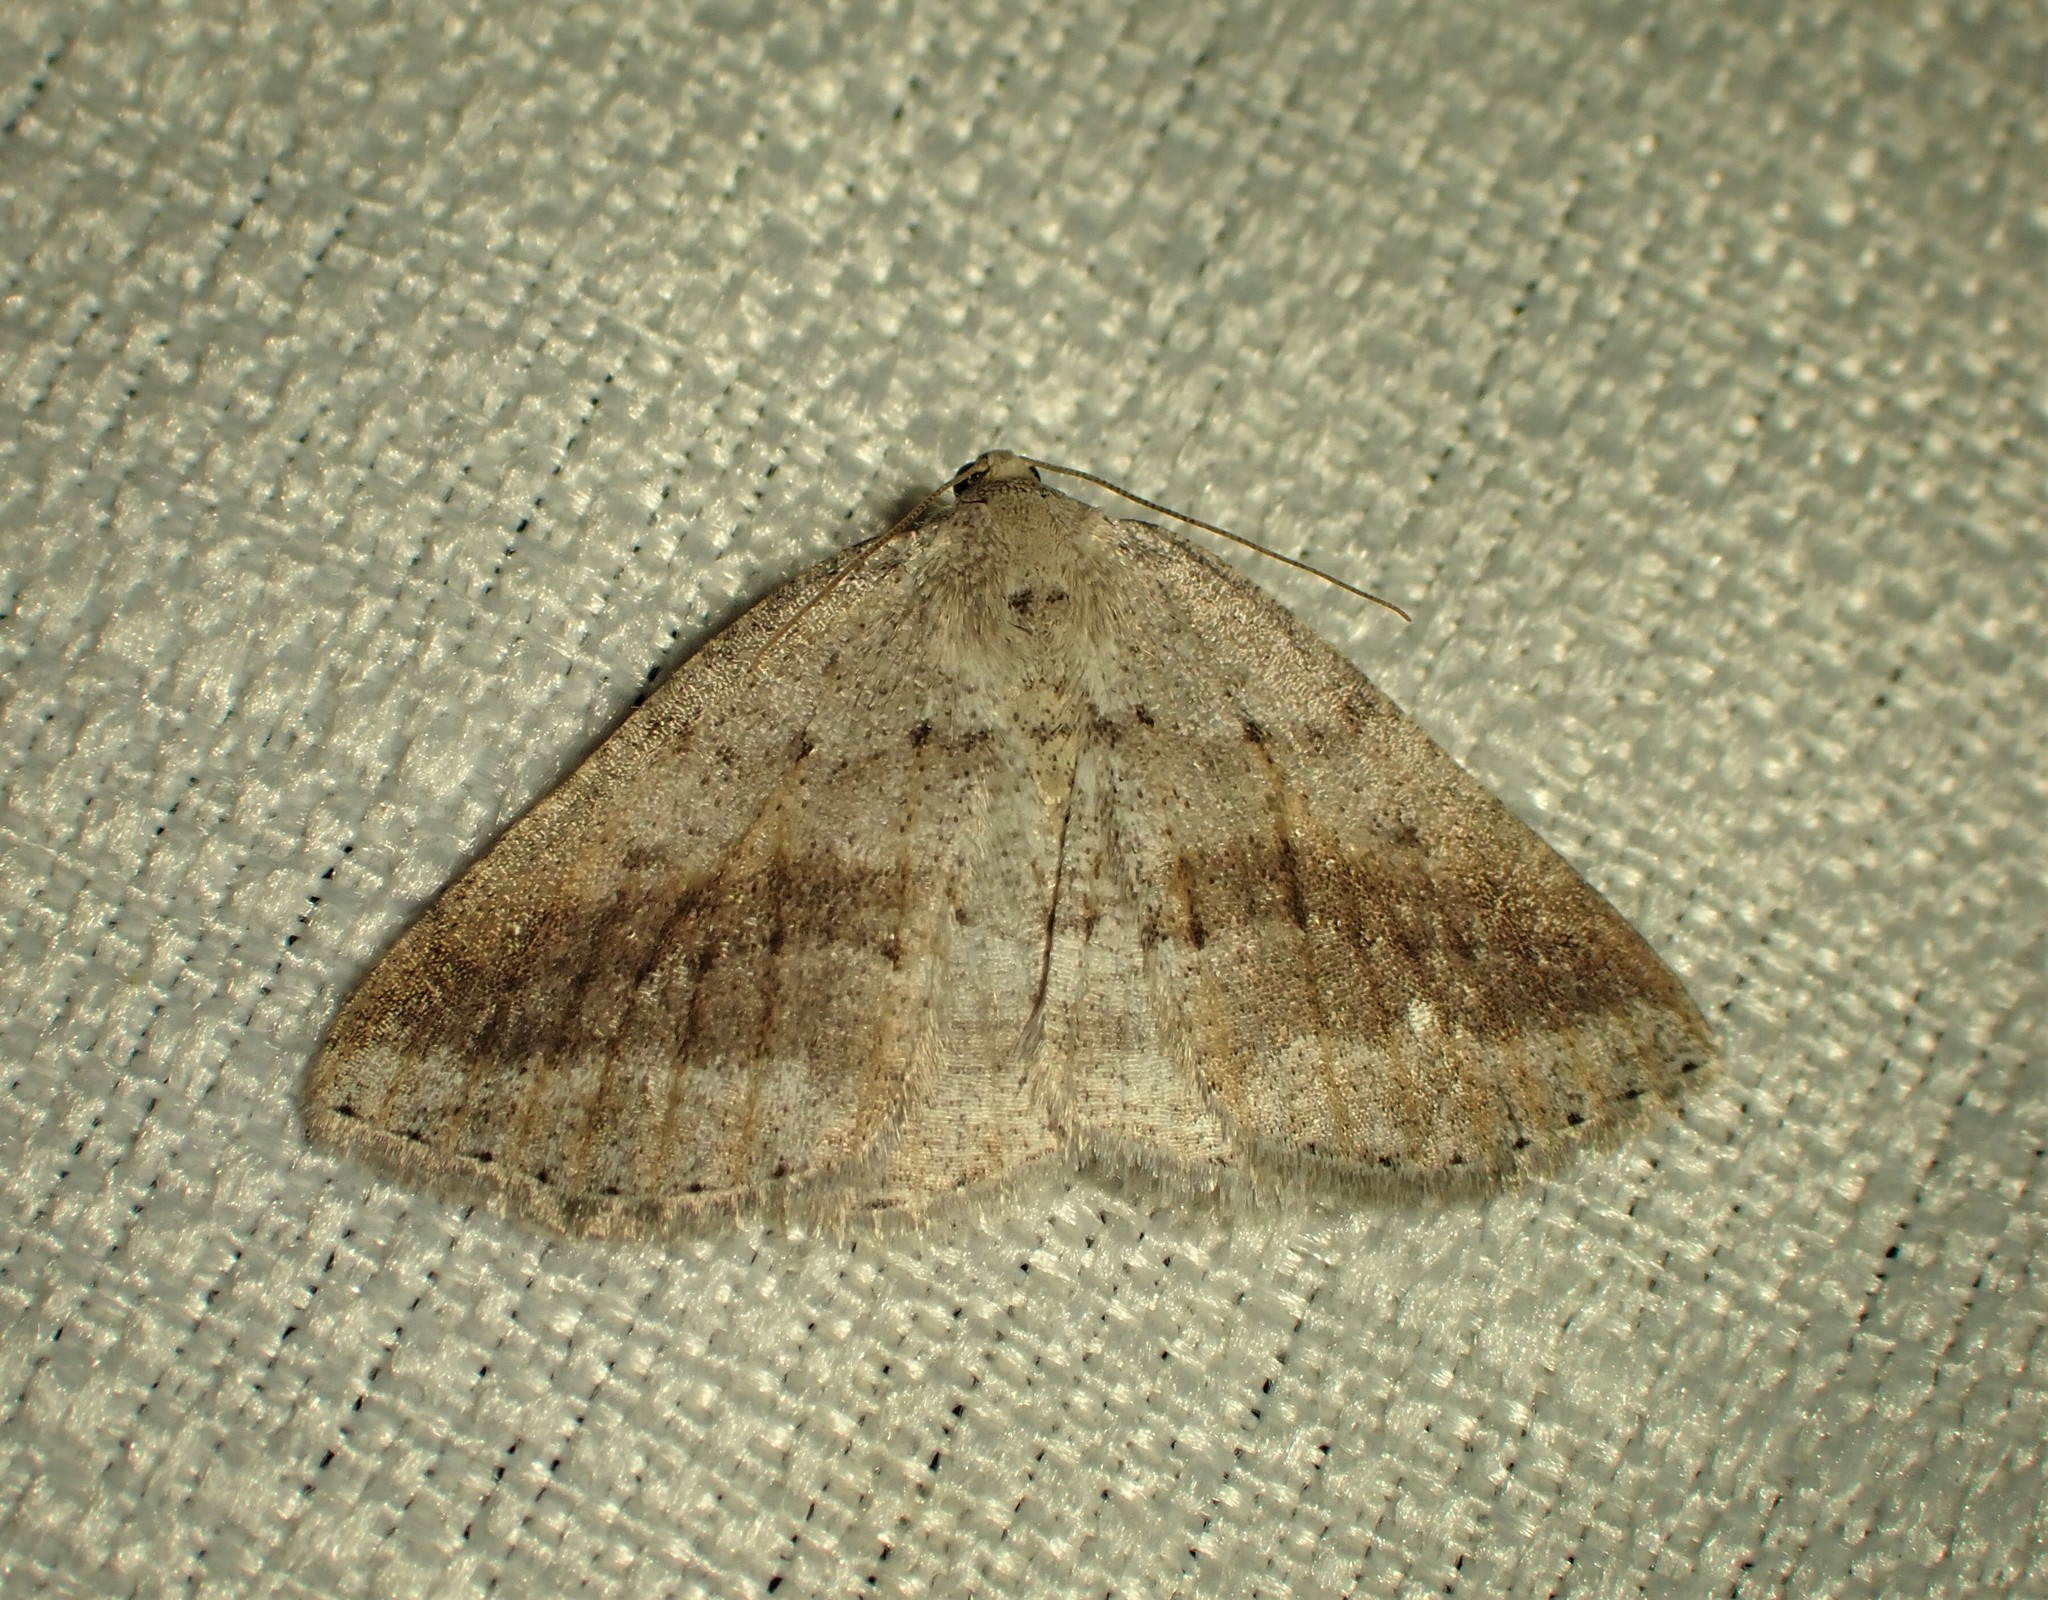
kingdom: Animalia
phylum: Arthropoda
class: Insecta
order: Lepidoptera
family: Geometridae
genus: Tacparia
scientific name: Tacparia detersata
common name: Pale alder moth
